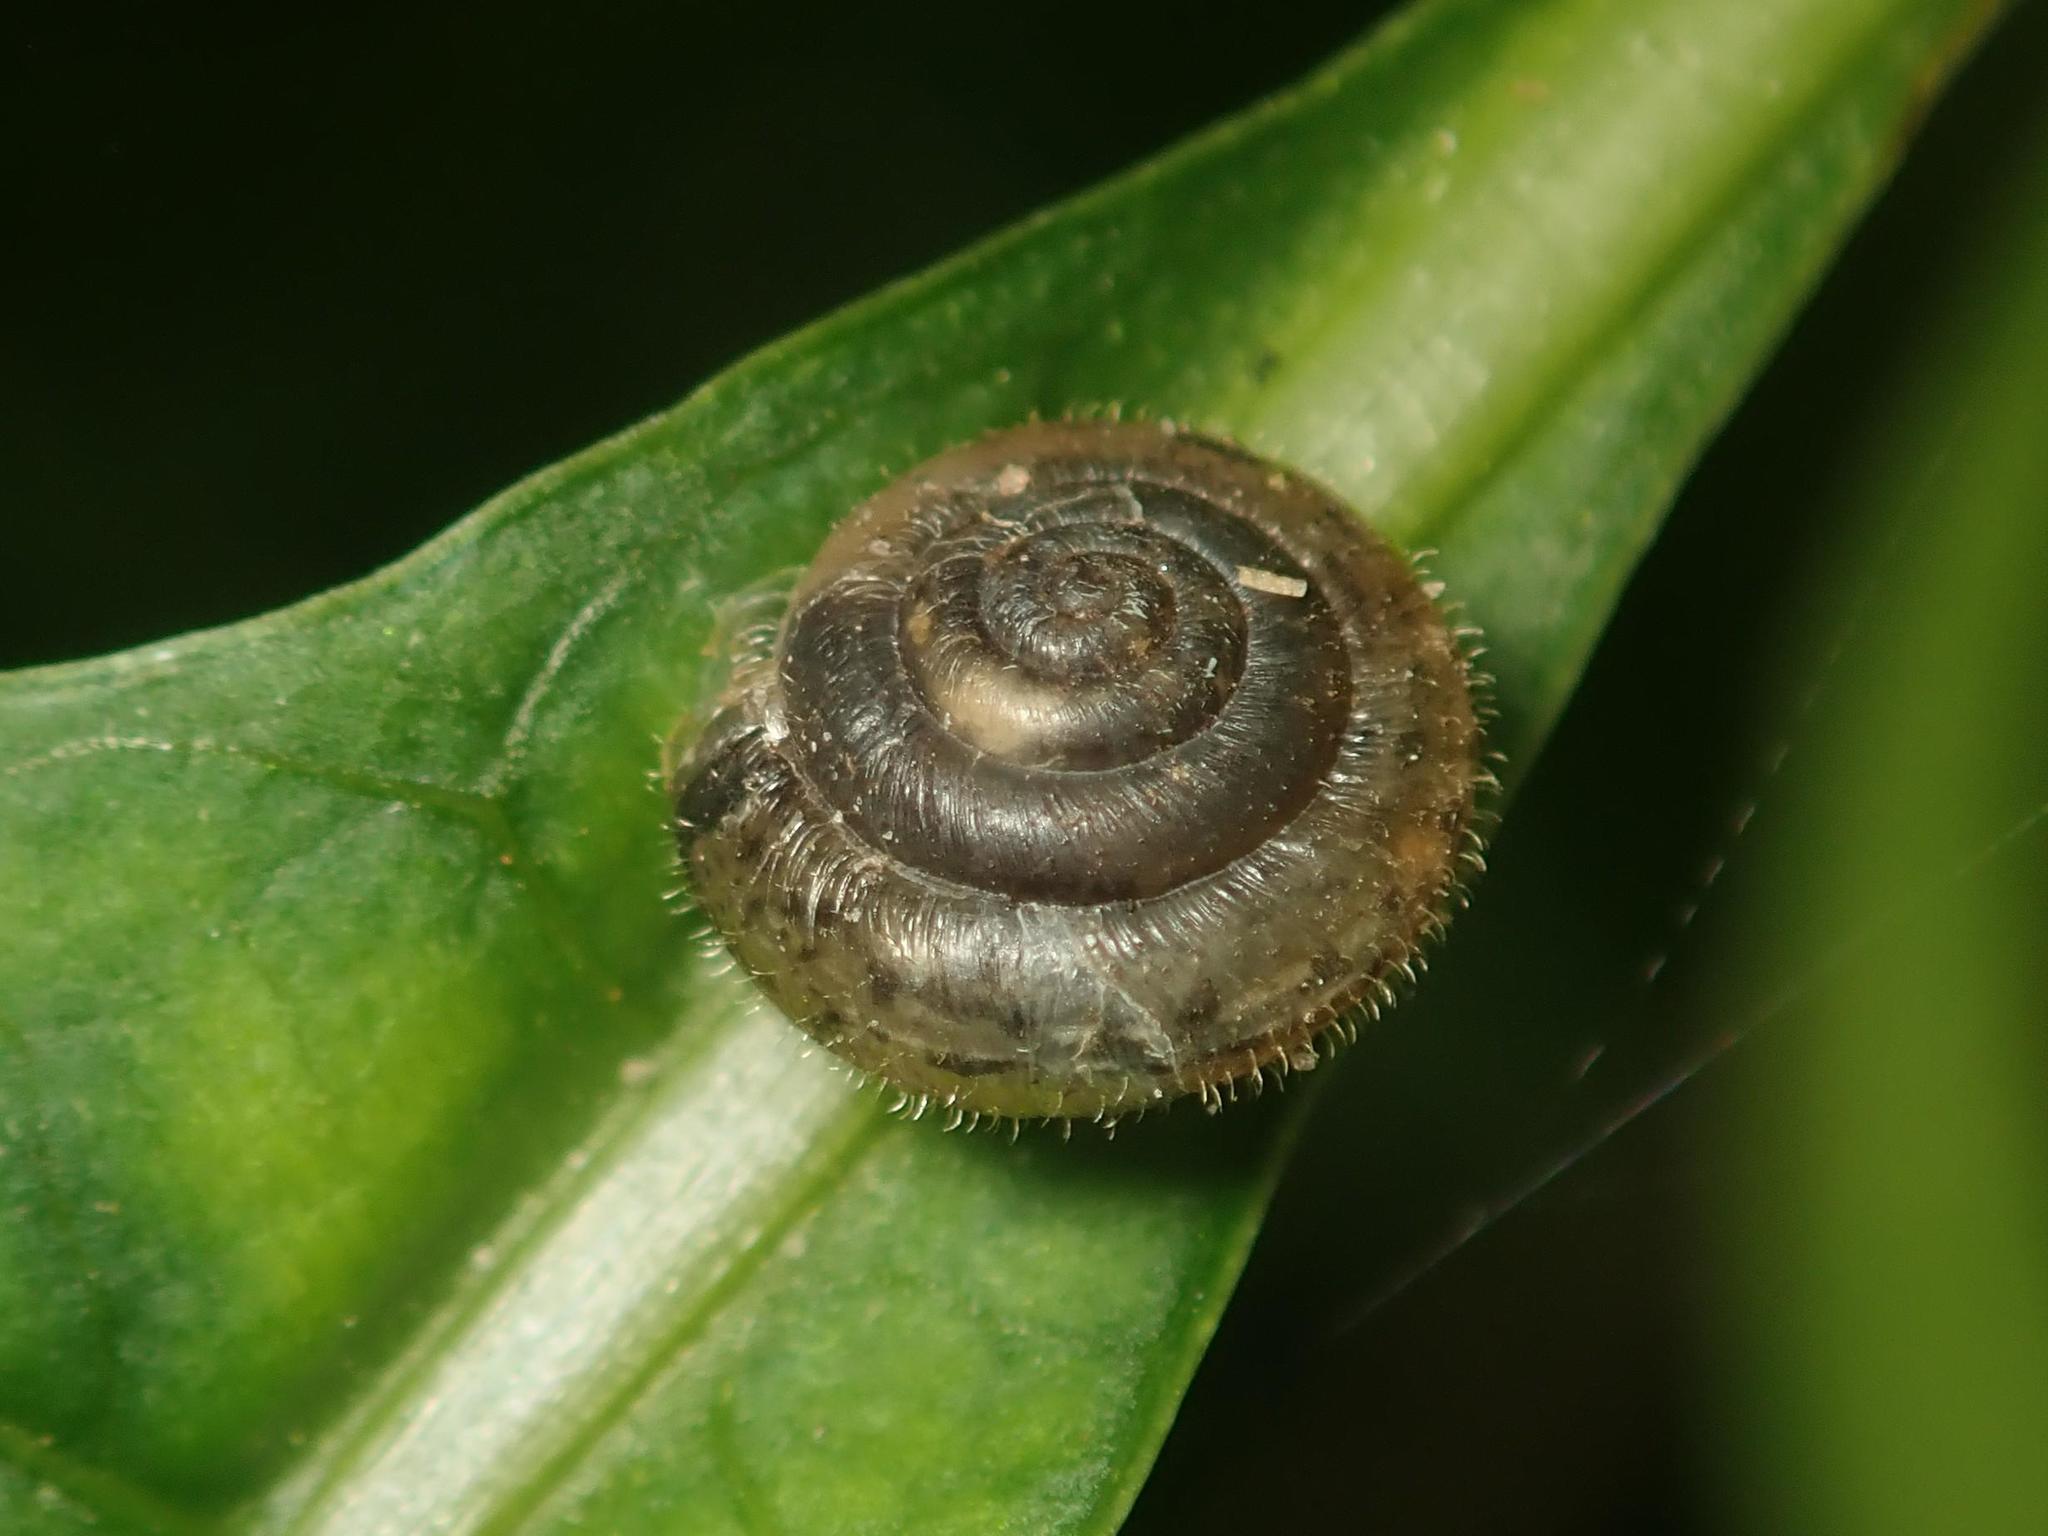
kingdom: Animalia
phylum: Mollusca
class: Gastropoda
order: Stylommatophora
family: Hygromiidae
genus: Trochulus
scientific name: Trochulus hispidus
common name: Hairy snail
